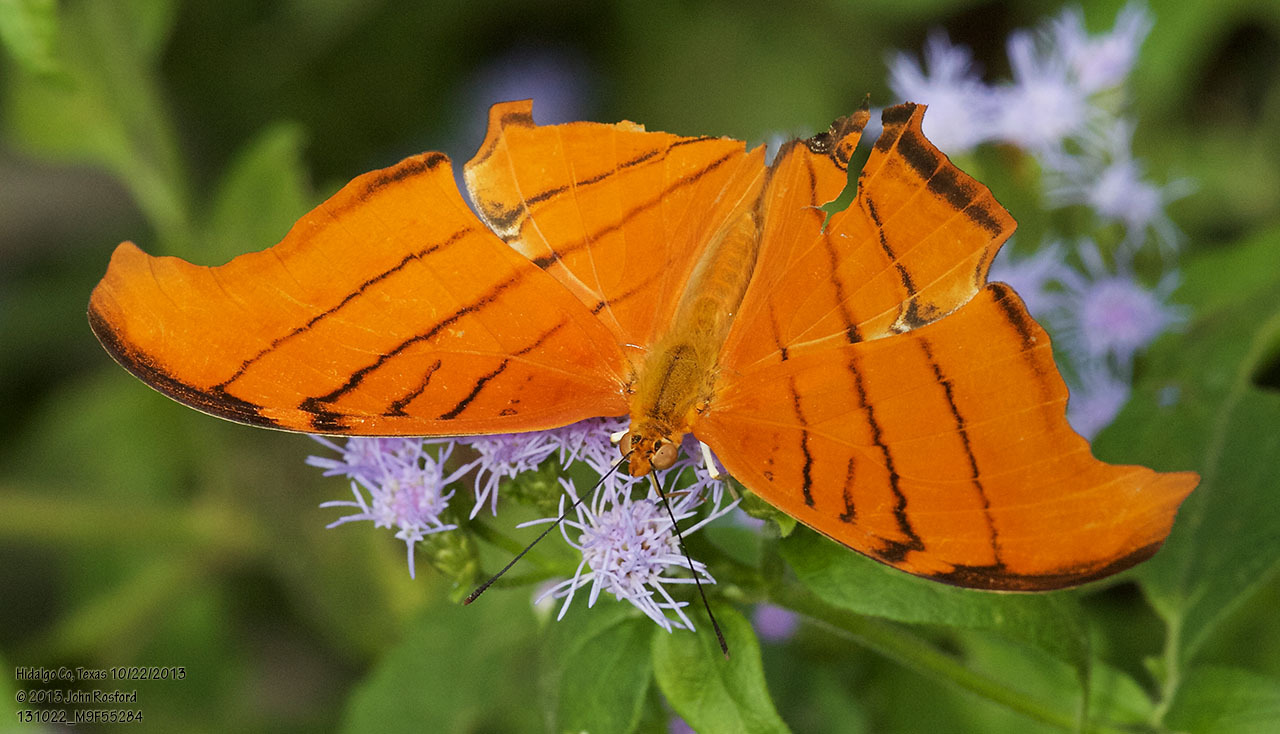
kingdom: Animalia
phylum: Arthropoda
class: Insecta
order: Lepidoptera
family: Nymphalidae
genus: Marpesia
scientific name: Marpesia petreus
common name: Red dagger wing
